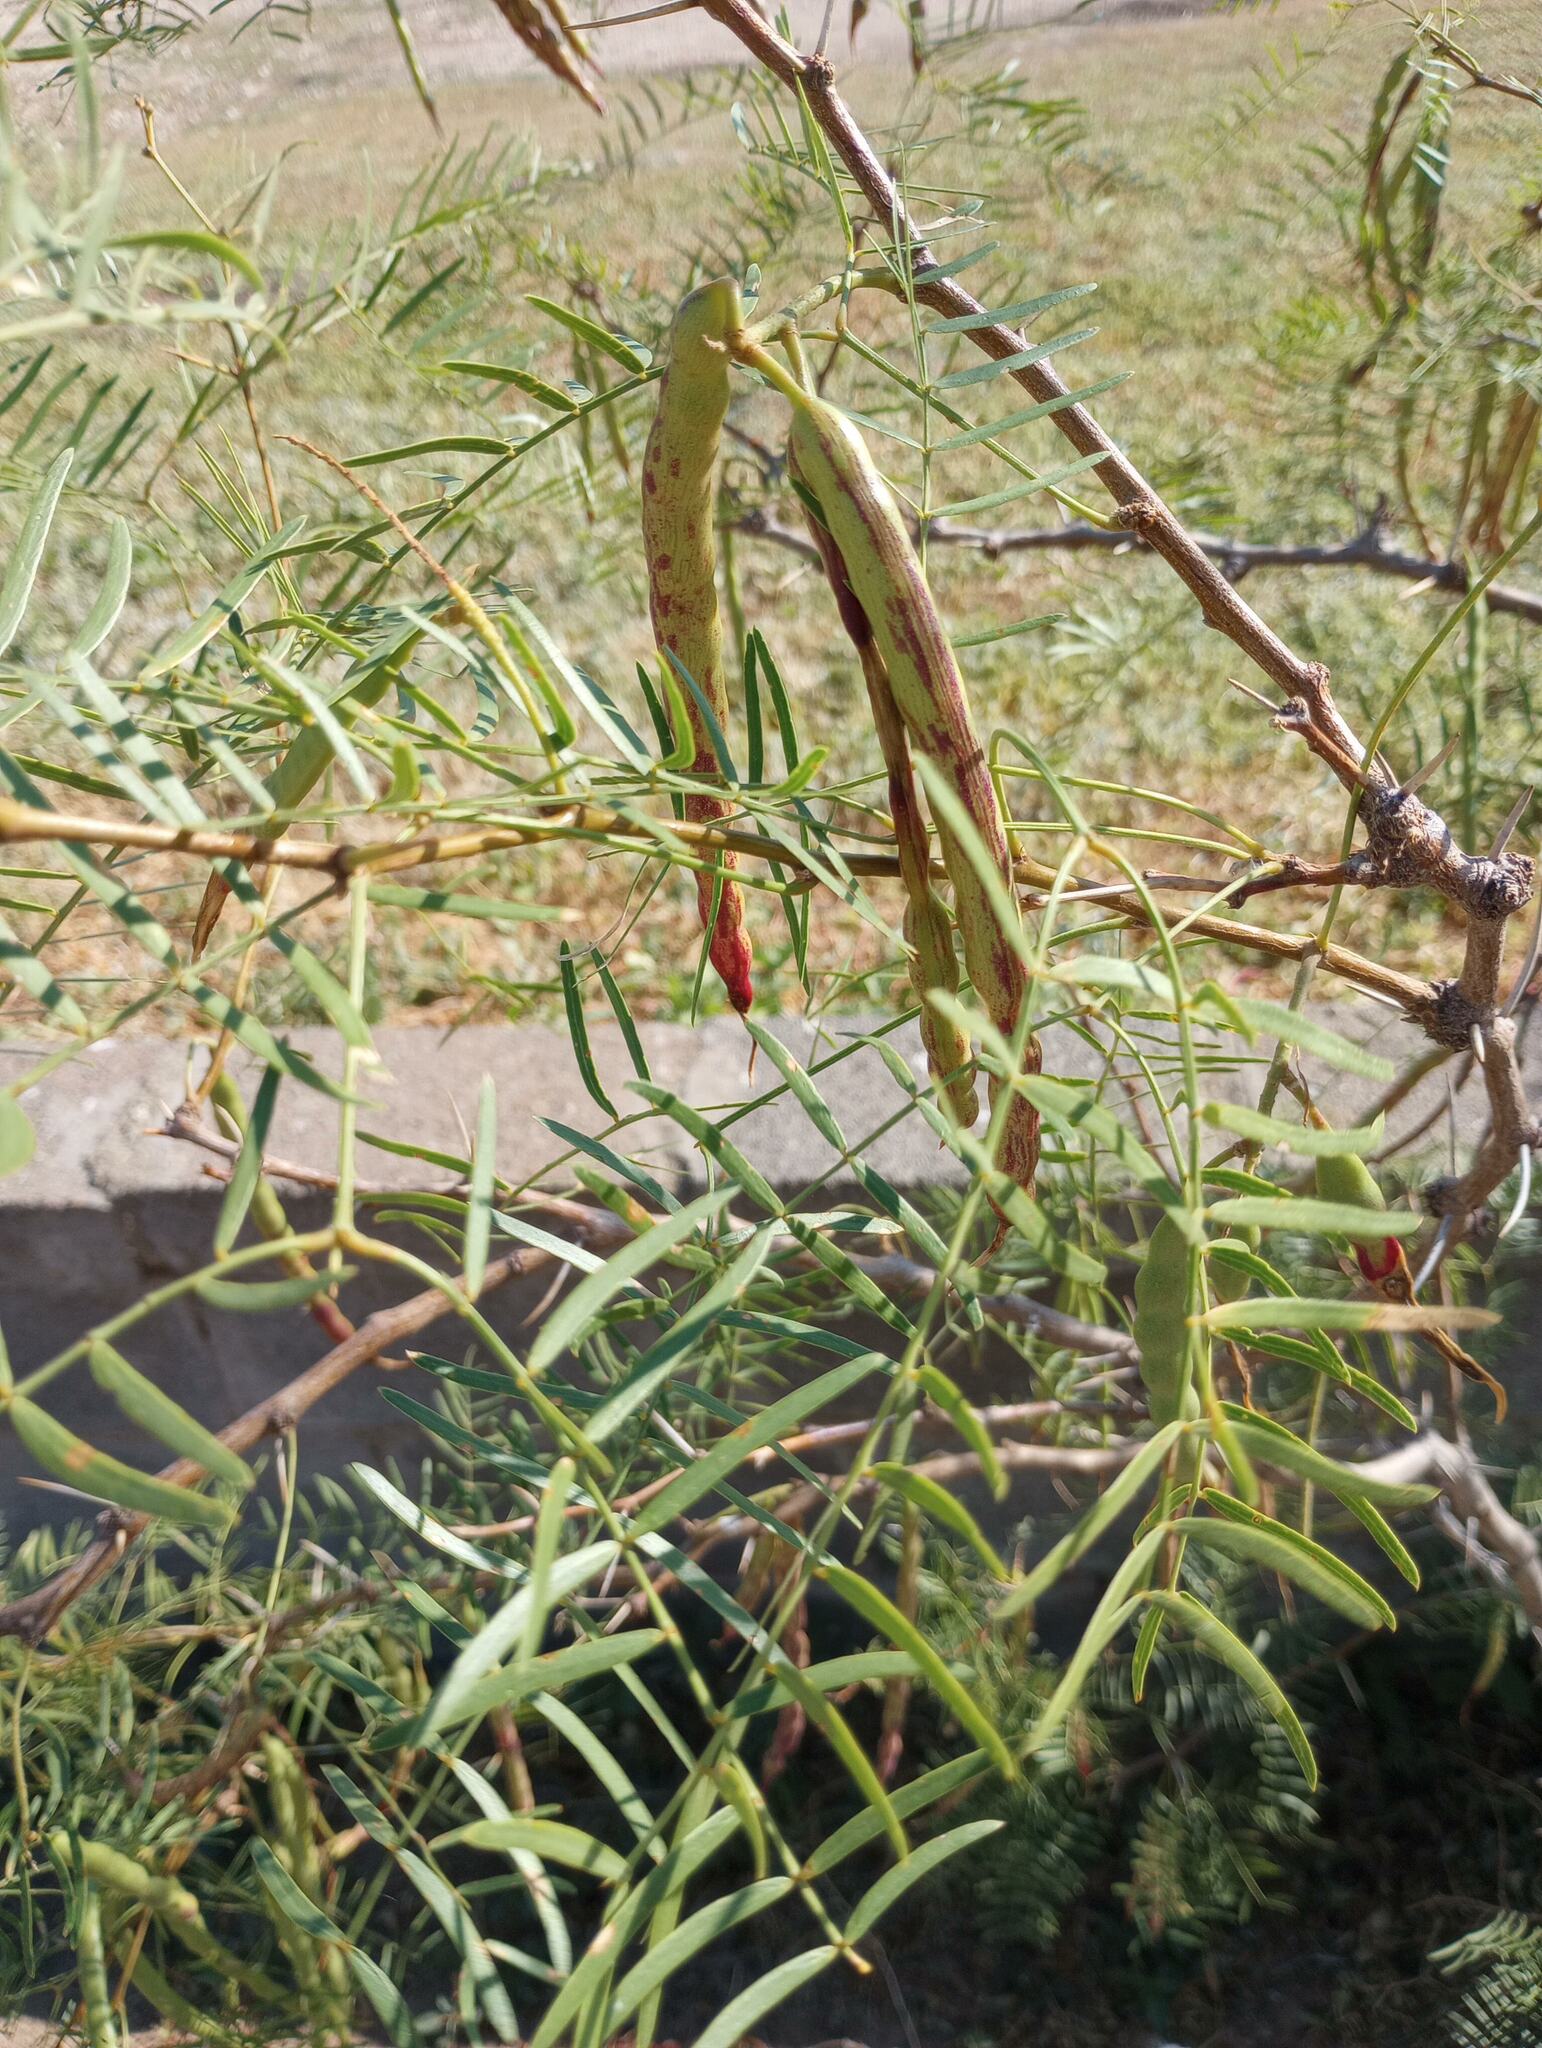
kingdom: Plantae
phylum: Tracheophyta
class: Magnoliopsida
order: Fabales
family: Fabaceae
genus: Prosopis
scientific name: Prosopis glandulosa
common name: Honey mesquite
